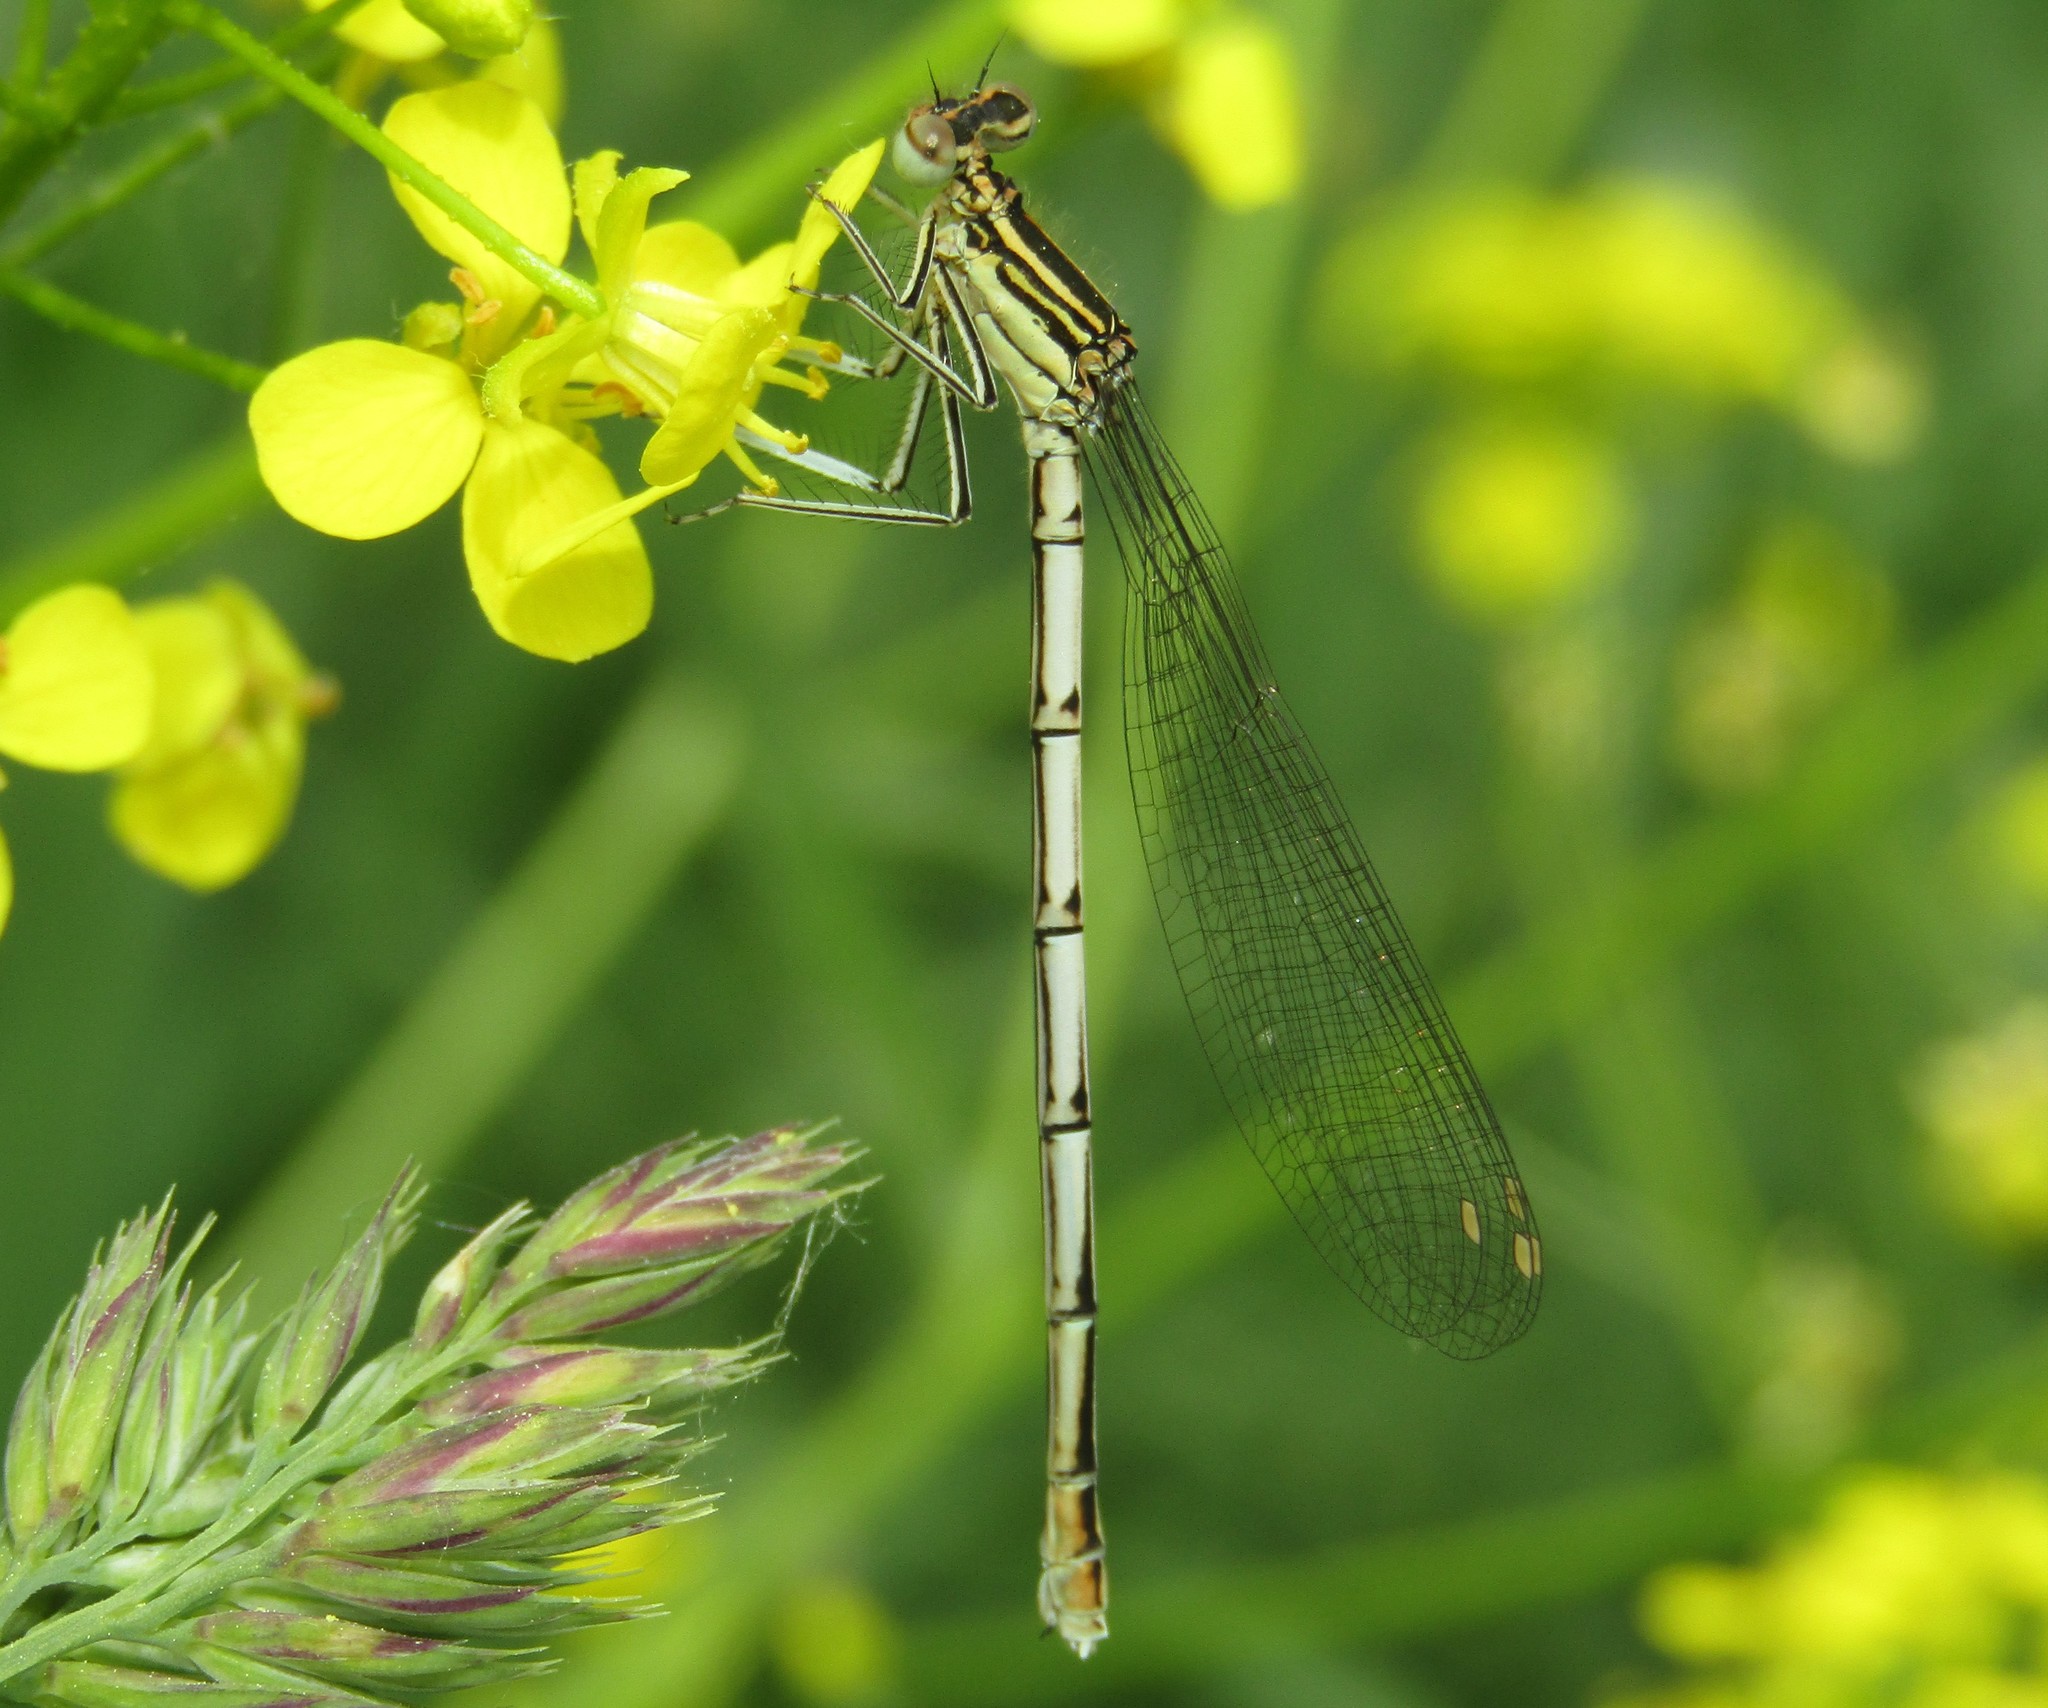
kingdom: Animalia
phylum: Arthropoda
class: Insecta
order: Odonata
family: Platycnemididae
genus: Platycnemis
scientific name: Platycnemis pennipes
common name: White-legged damselfly
